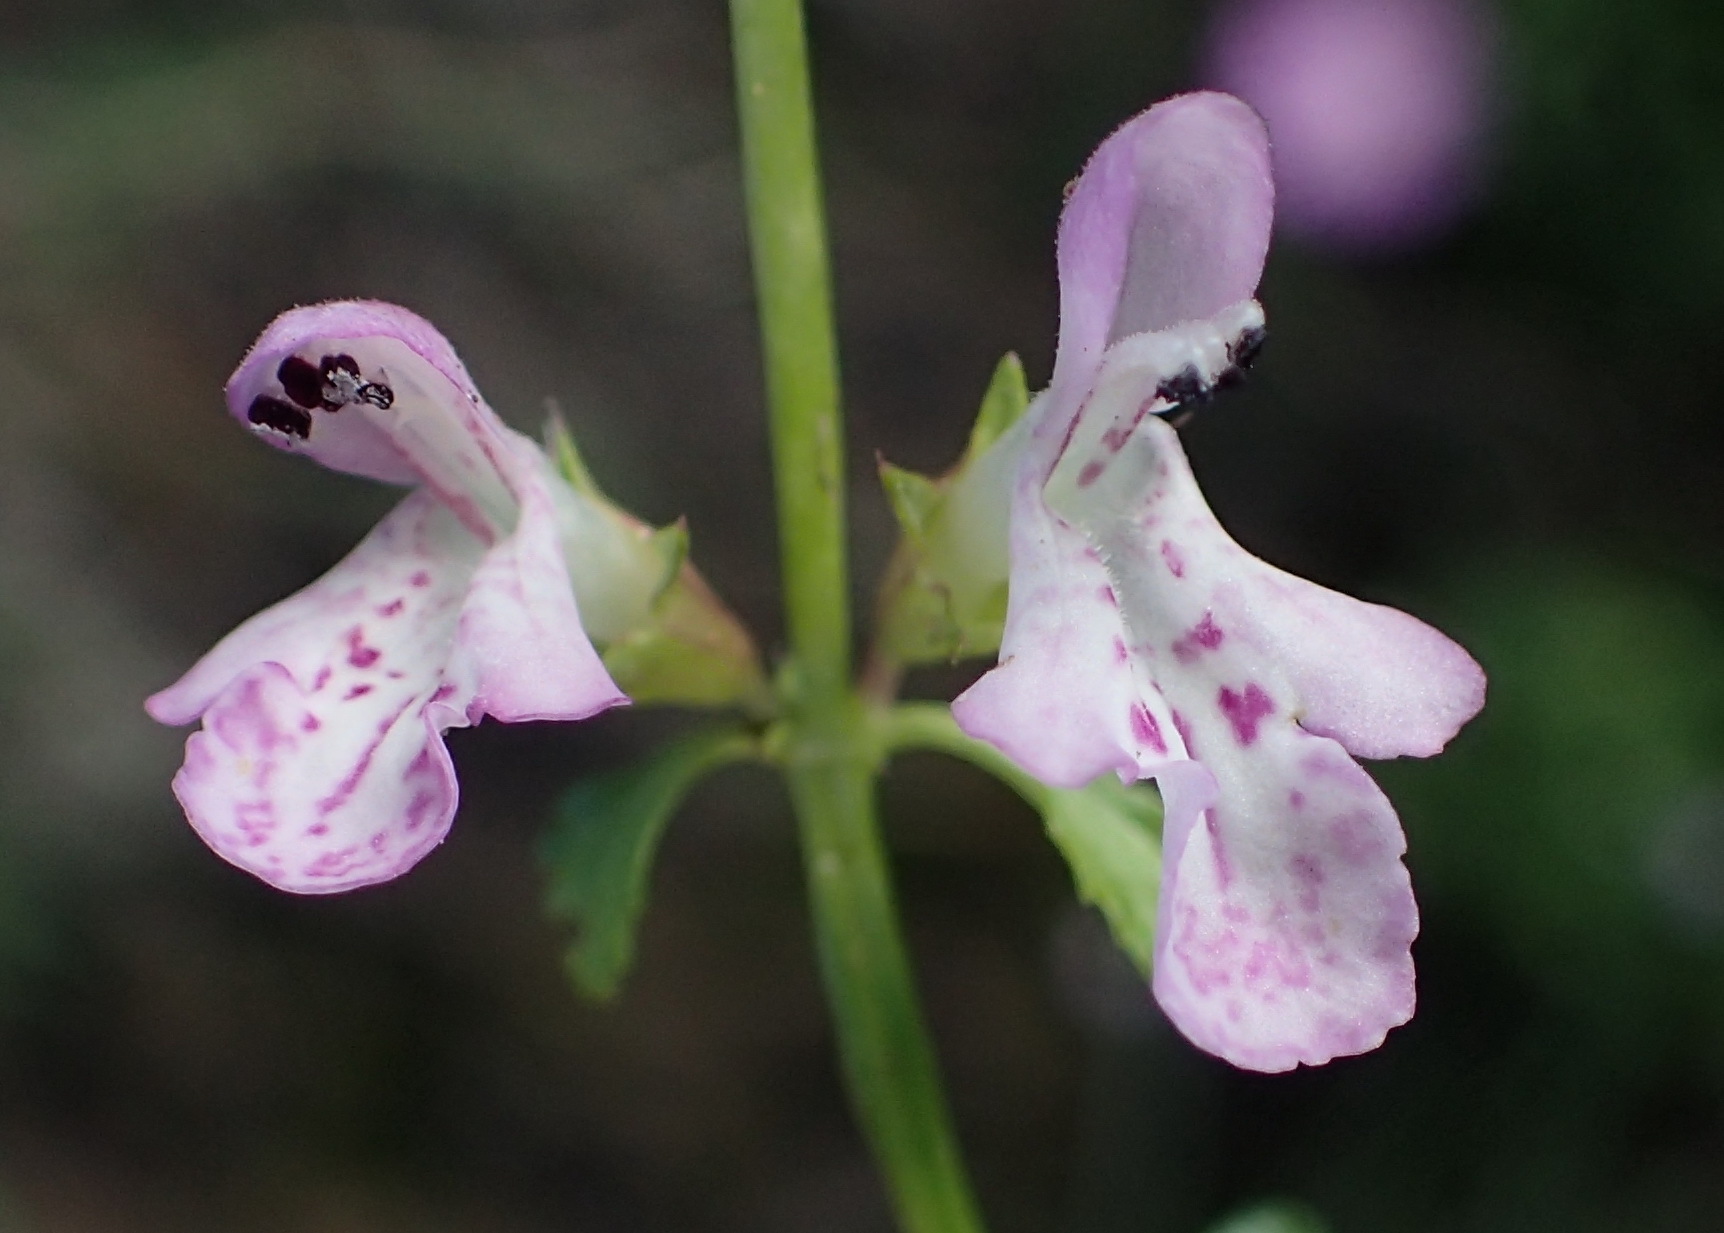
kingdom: Plantae
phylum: Tracheophyta
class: Magnoliopsida
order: Lamiales
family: Lamiaceae
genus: Stachys
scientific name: Stachys aethiopica
